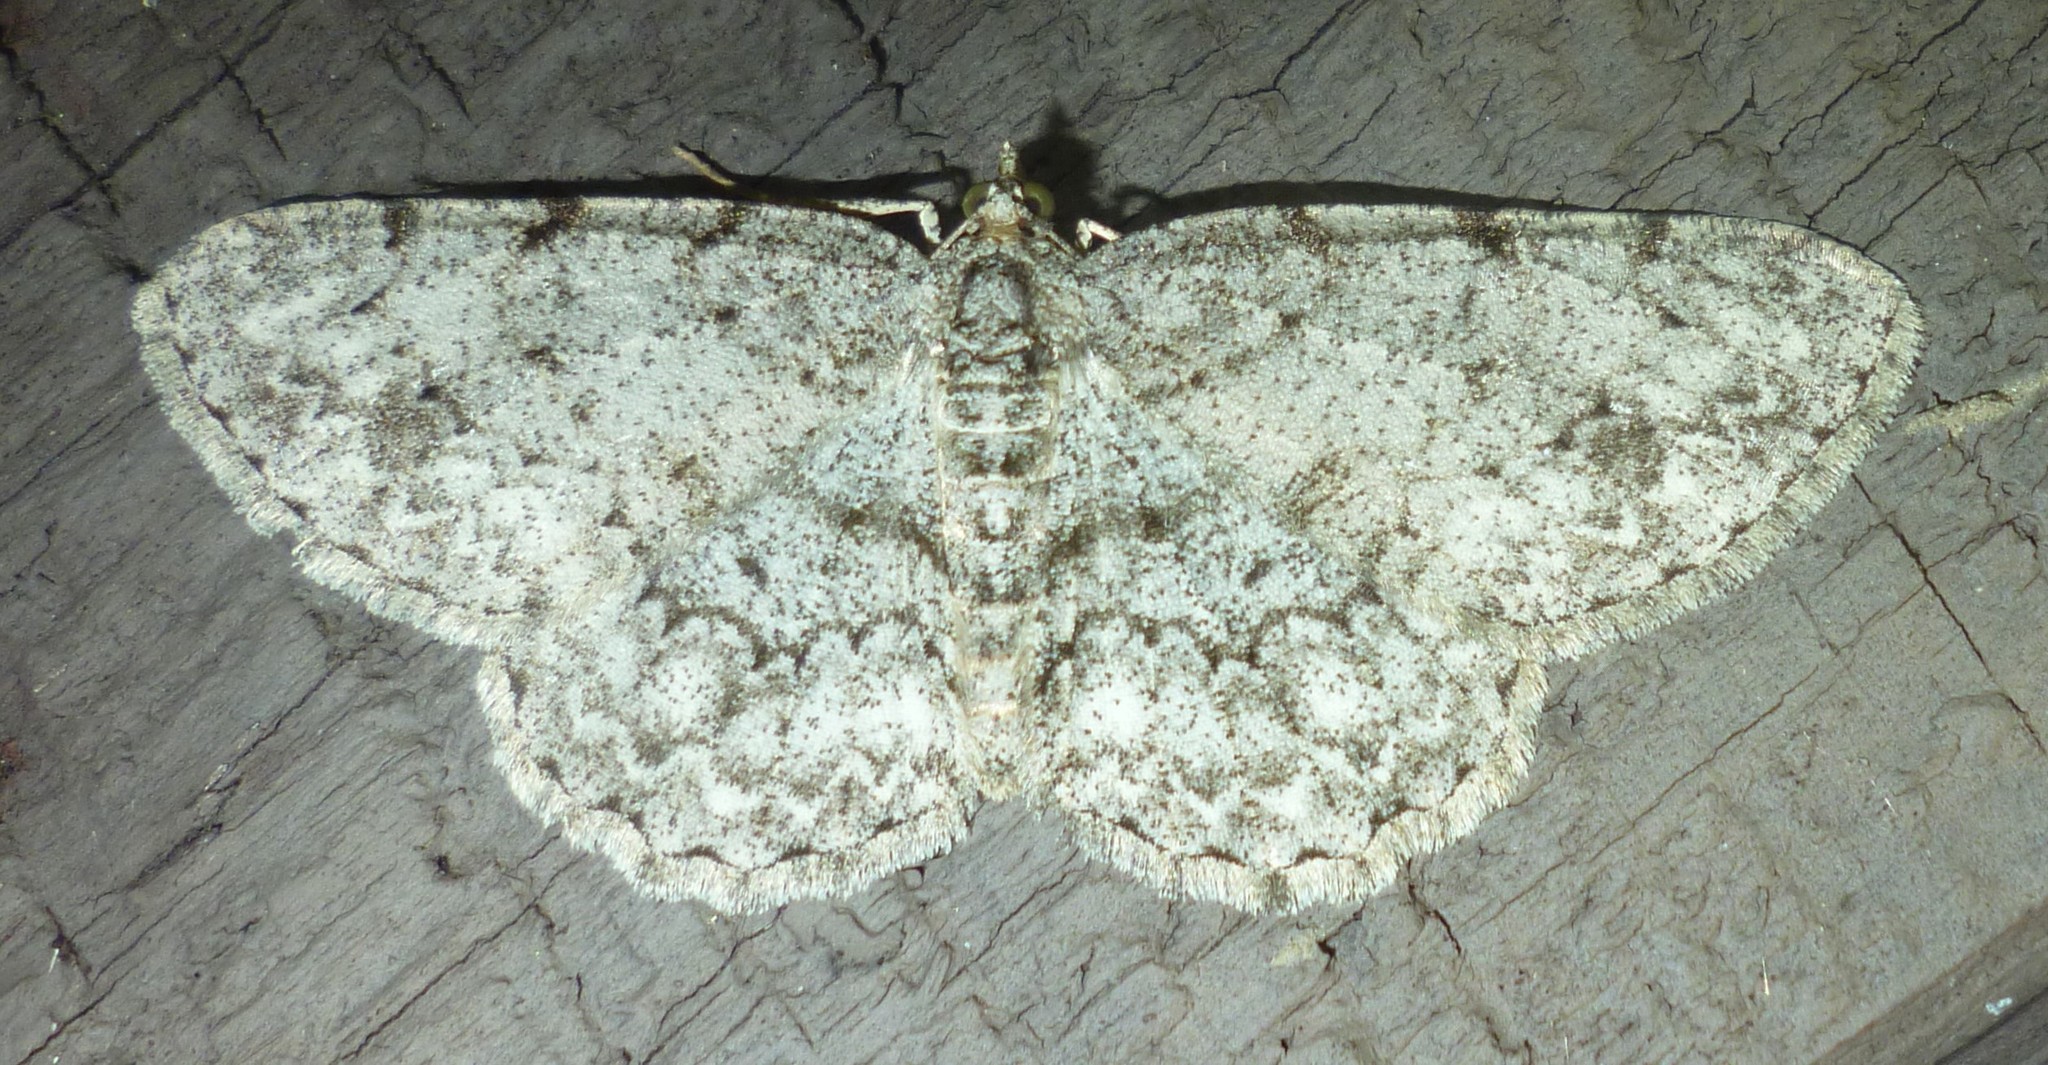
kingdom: Animalia
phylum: Arthropoda
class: Insecta
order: Lepidoptera
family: Geometridae
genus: Protoboarmia
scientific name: Protoboarmia porcelaria
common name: Porcelain gray
